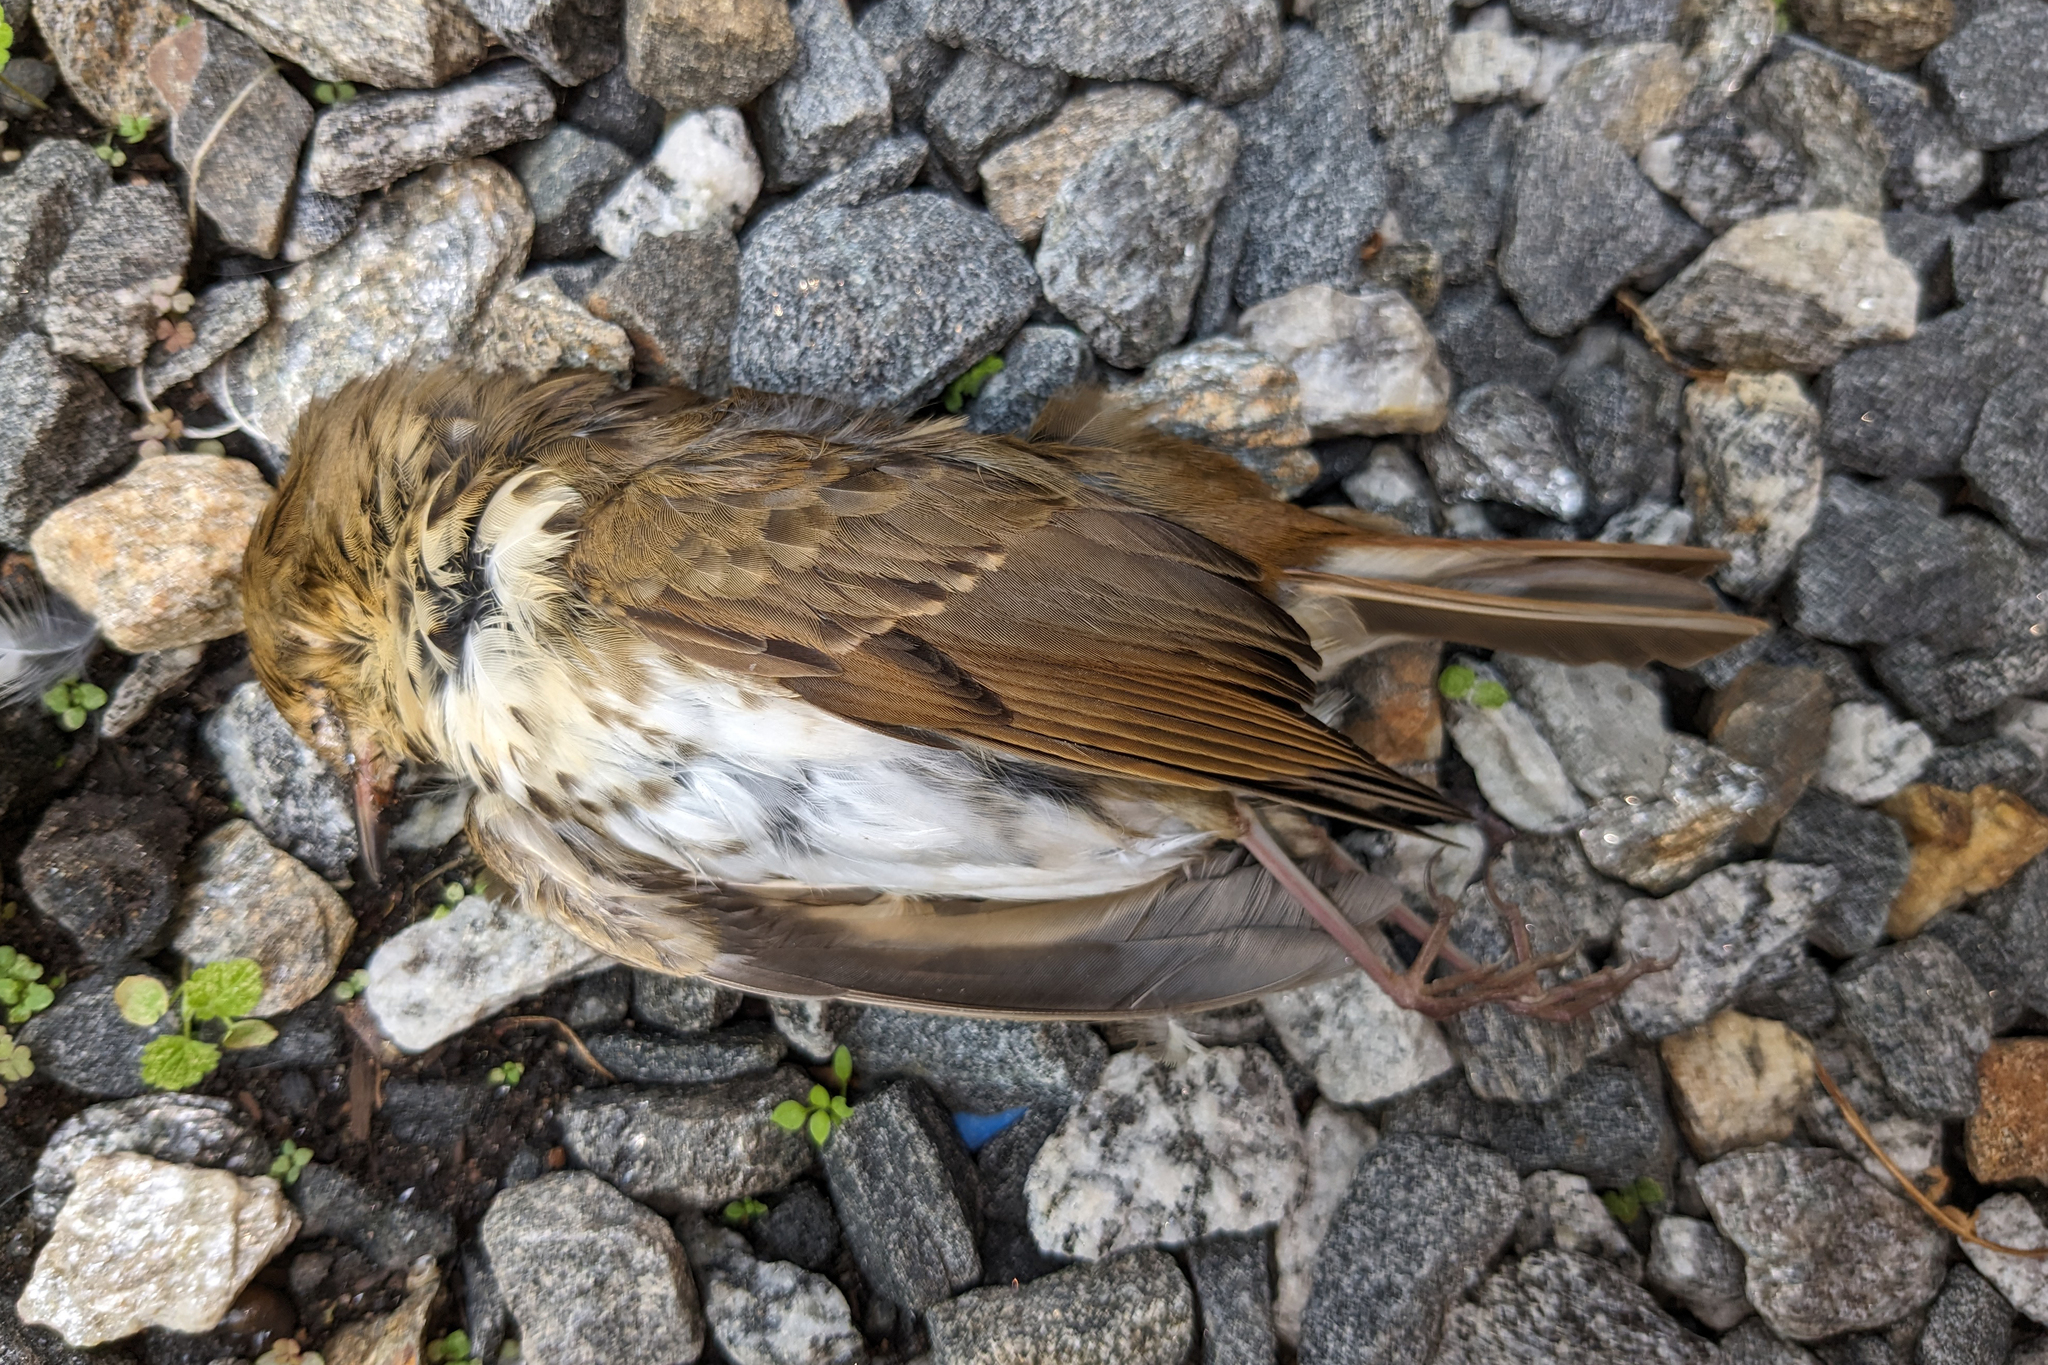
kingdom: Animalia
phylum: Chordata
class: Aves
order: Passeriformes
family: Turdidae
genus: Catharus
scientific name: Catharus guttatus
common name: Hermit thrush
